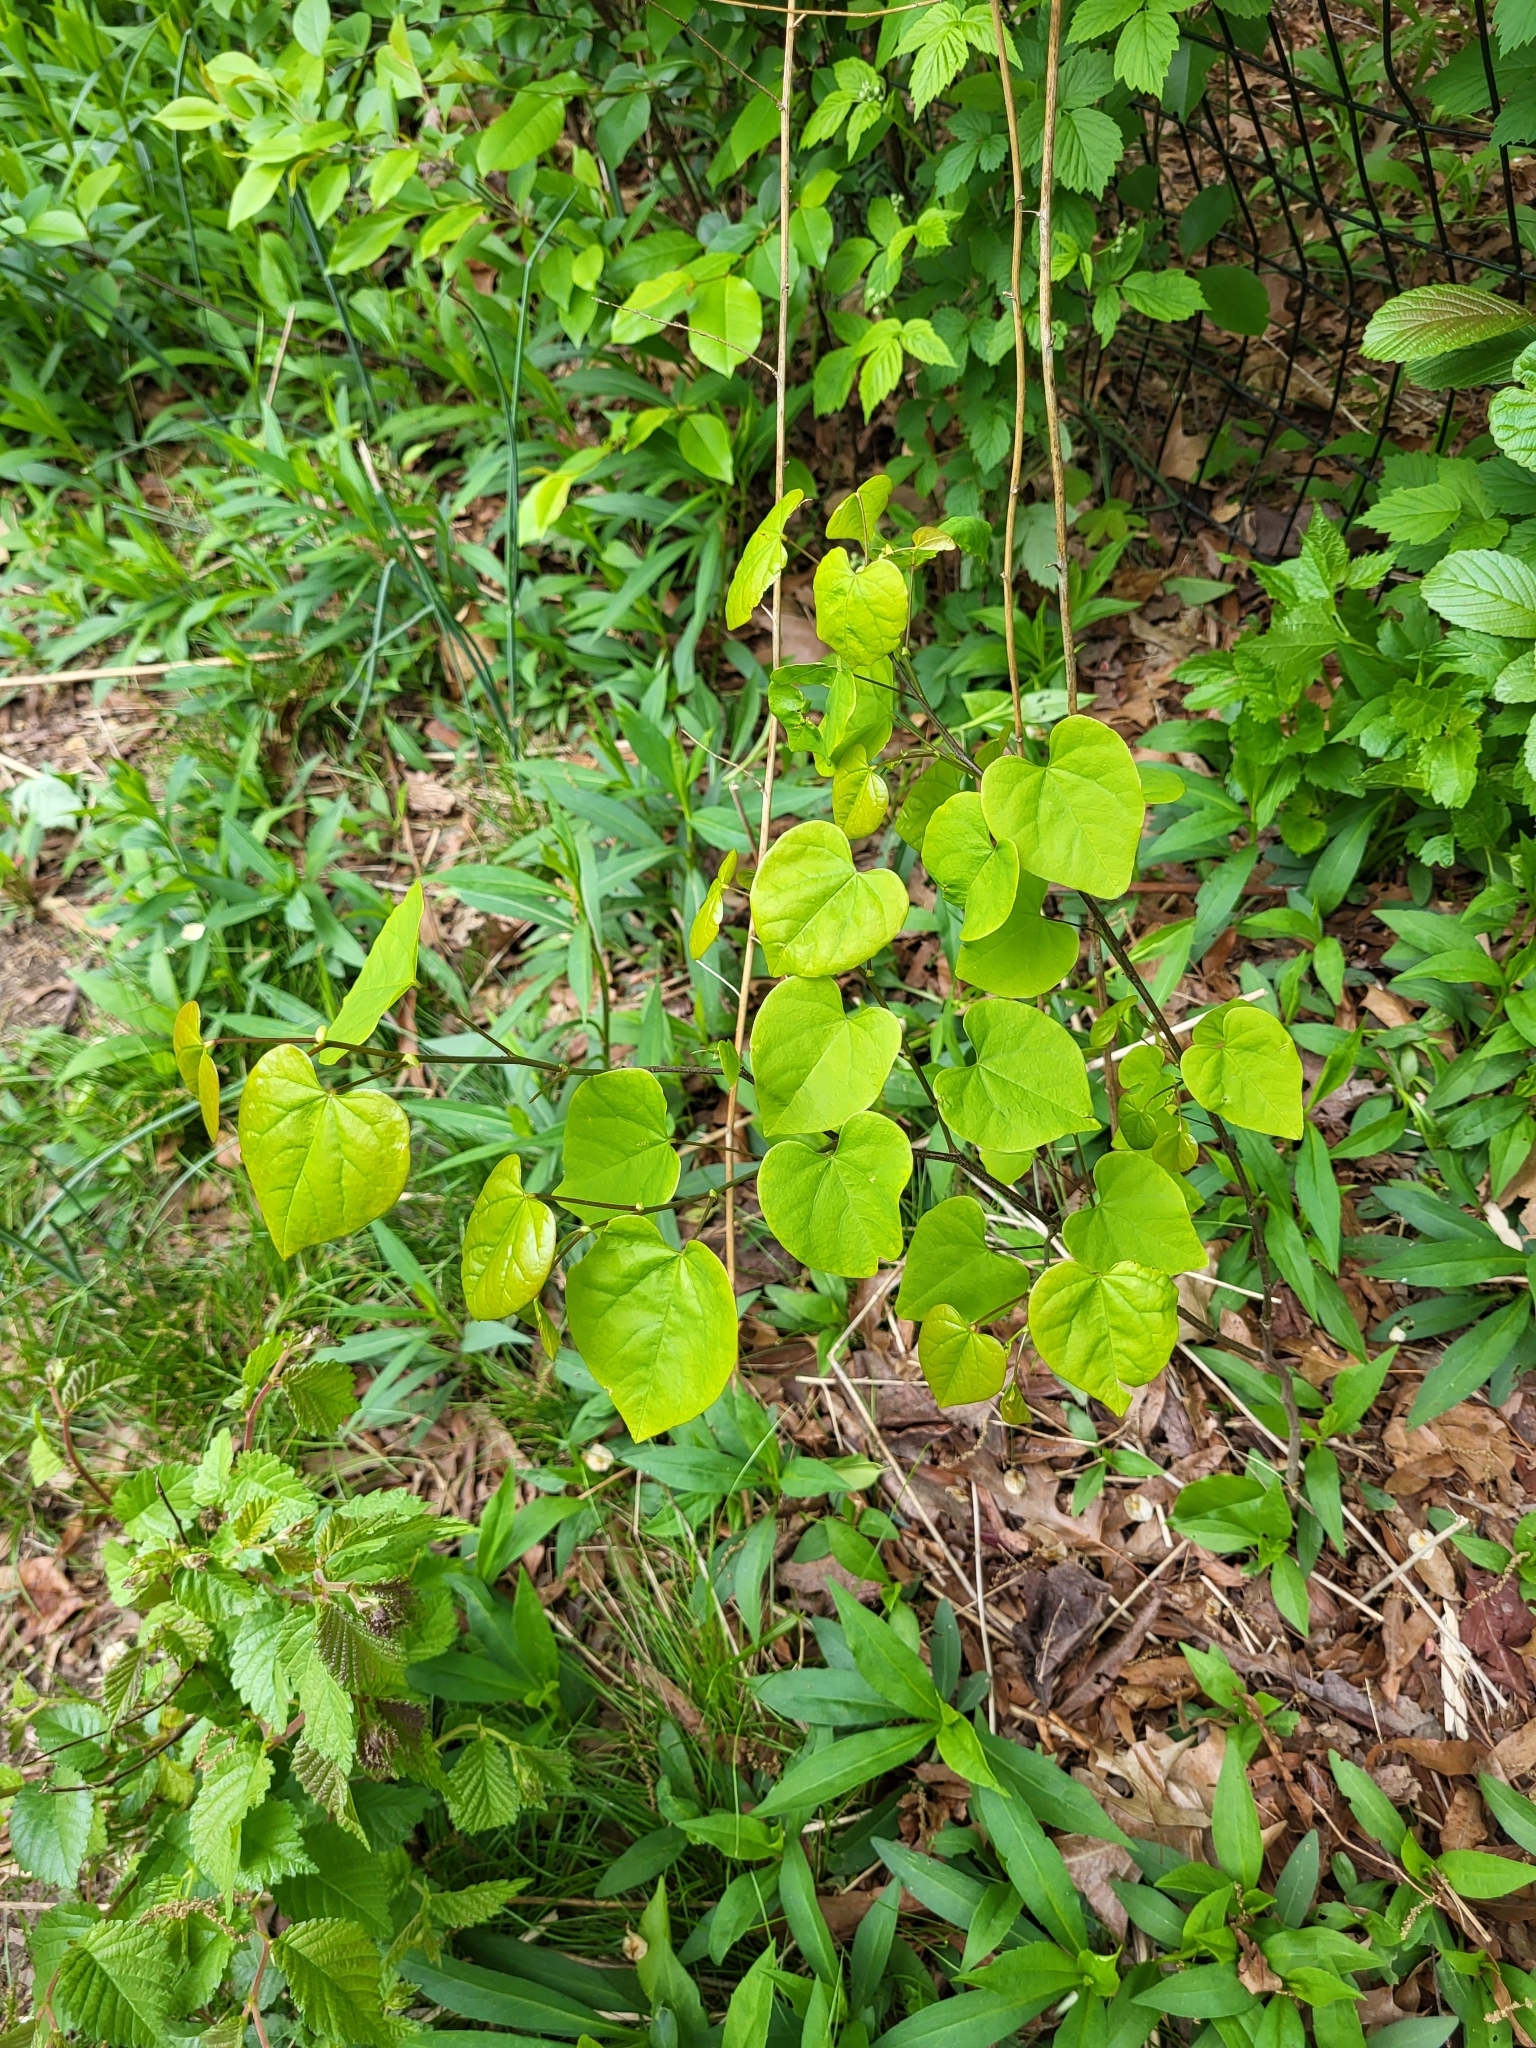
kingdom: Plantae
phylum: Tracheophyta
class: Magnoliopsida
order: Fabales
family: Fabaceae
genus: Cercis
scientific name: Cercis canadensis
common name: Eastern redbud
